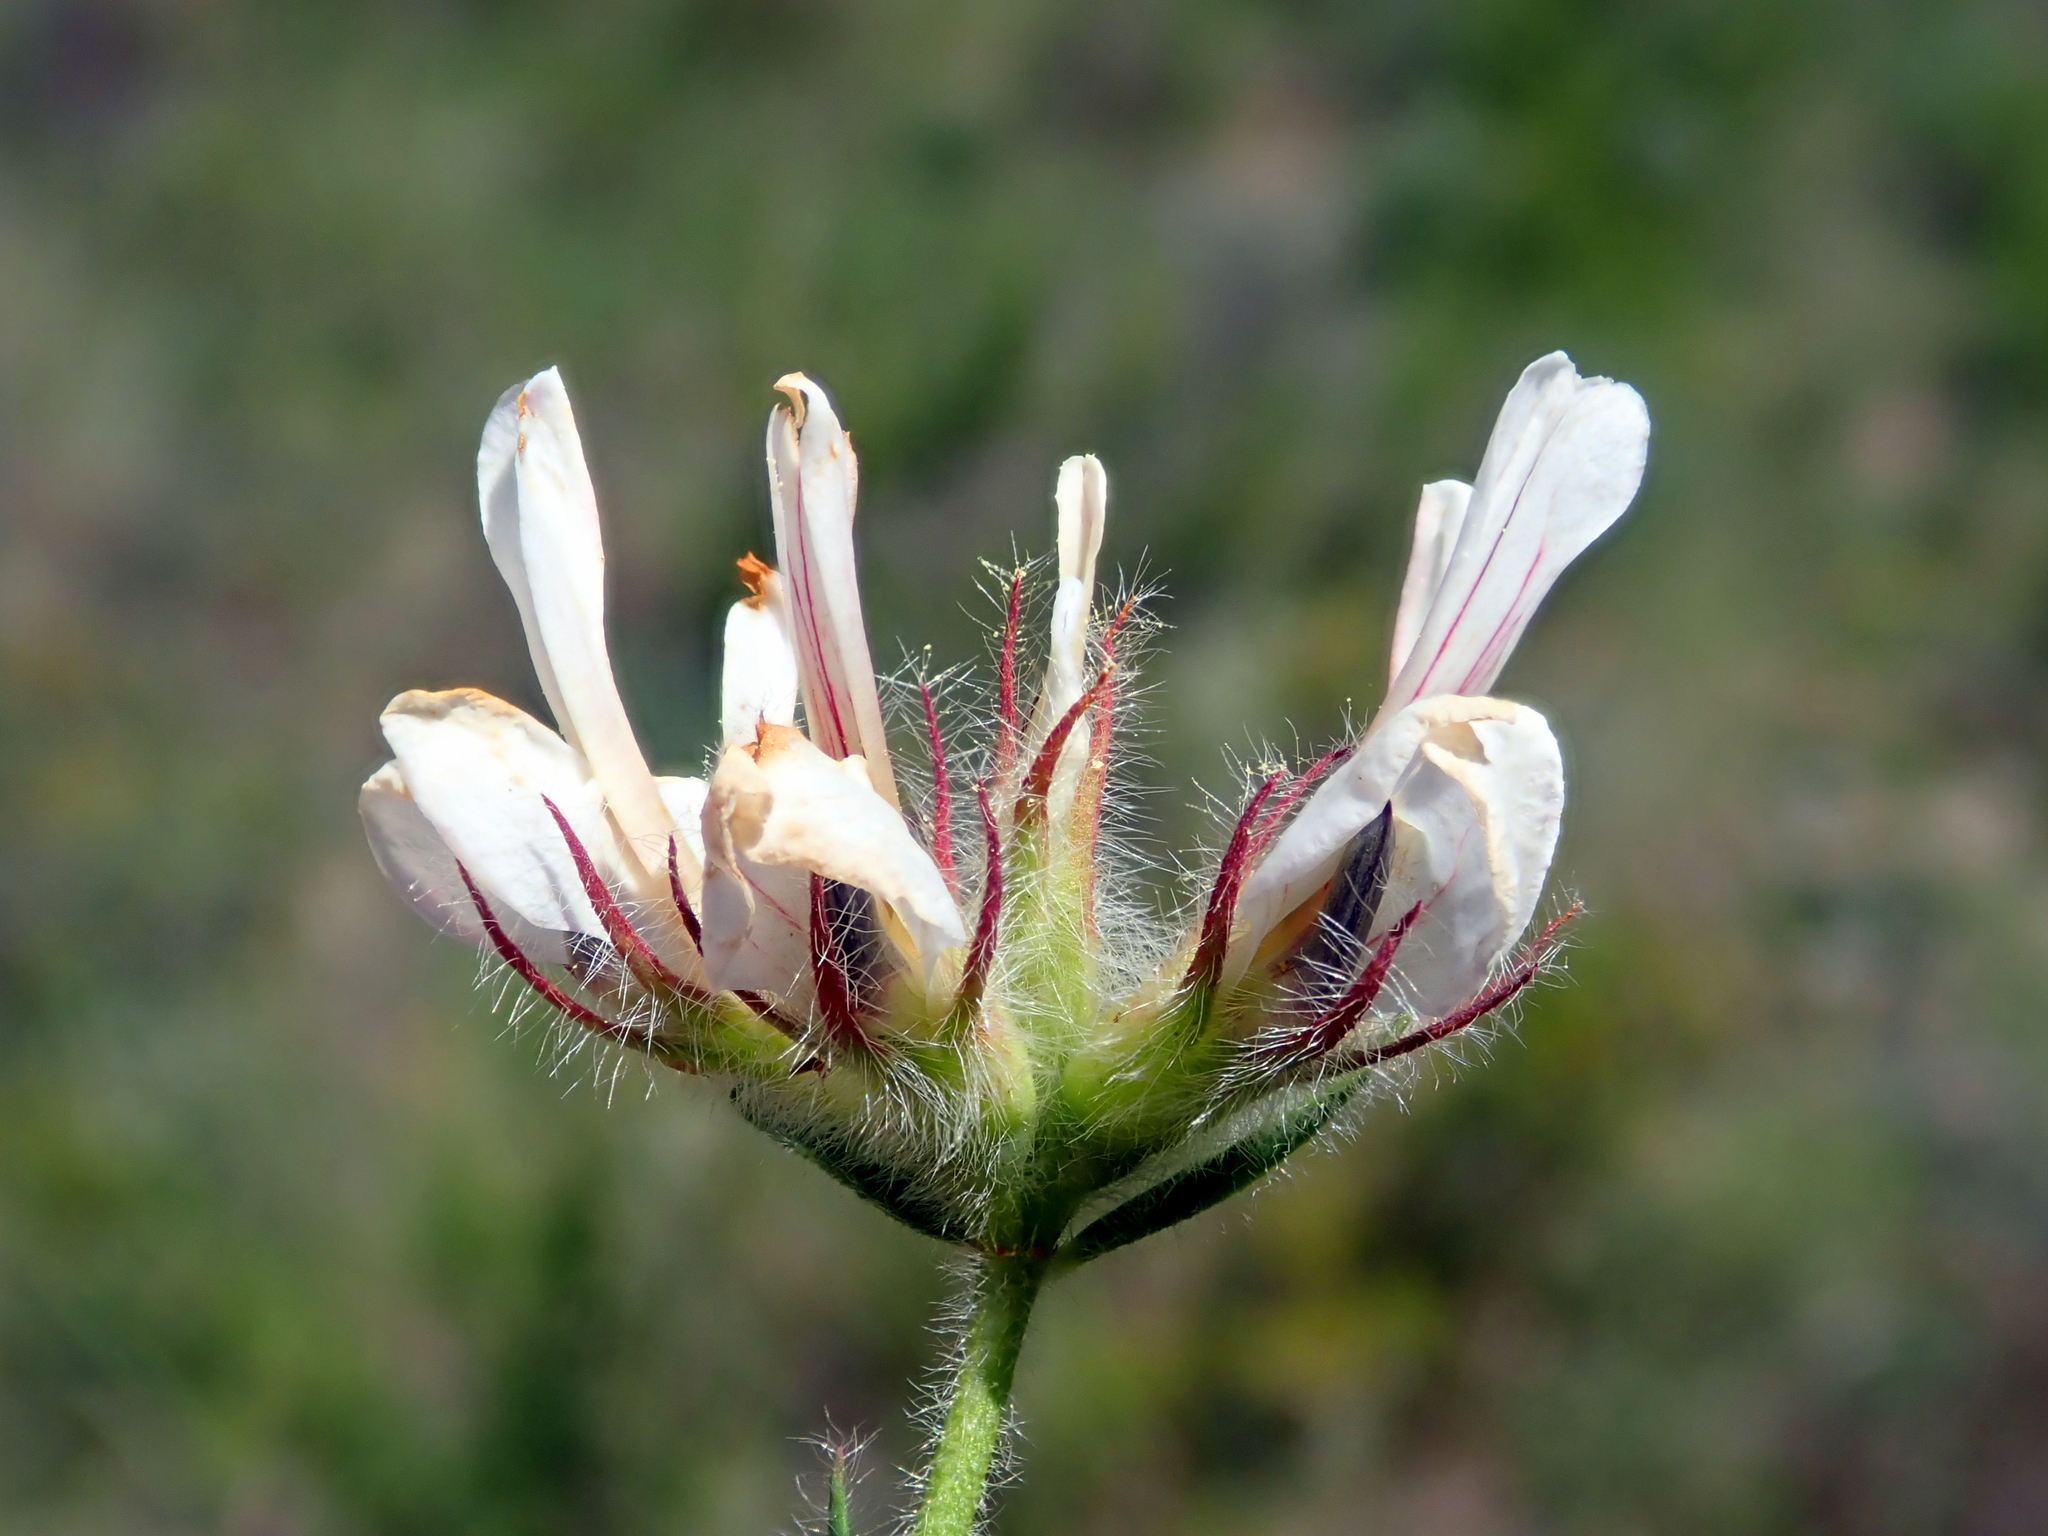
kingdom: Plantae
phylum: Tracheophyta
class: Magnoliopsida
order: Fabales
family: Fabaceae
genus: Lotus
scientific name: Lotus hirsutus
